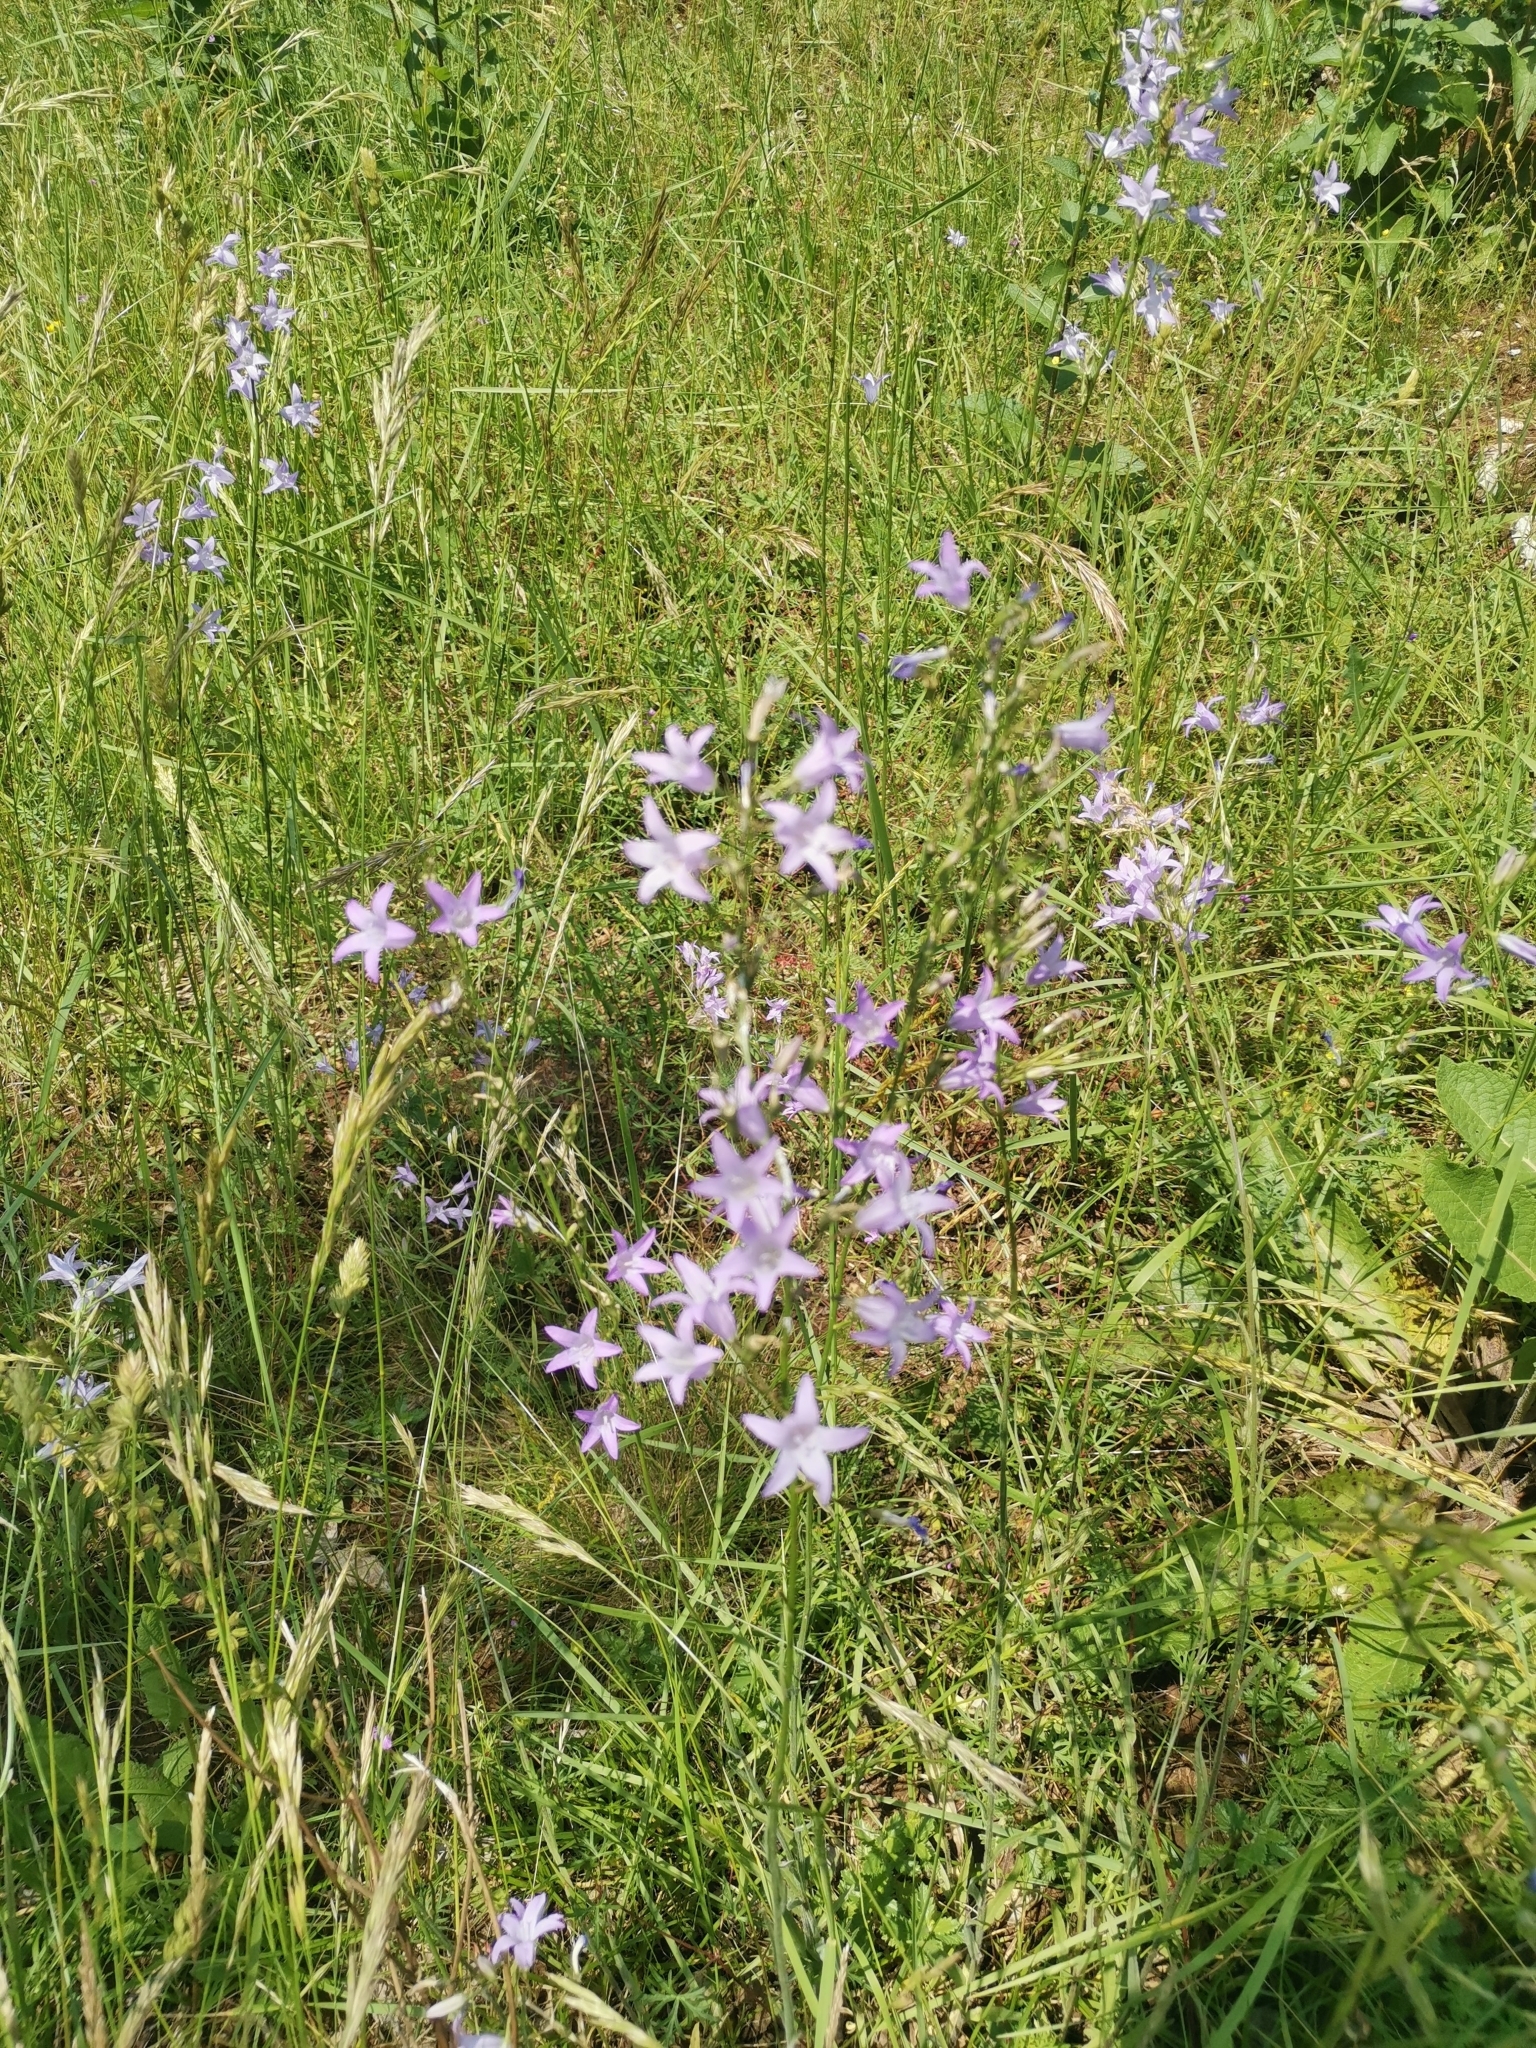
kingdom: Plantae
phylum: Tracheophyta
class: Magnoliopsida
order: Asterales
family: Campanulaceae
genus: Campanula
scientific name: Campanula rapunculus
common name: Rampion bellflower
